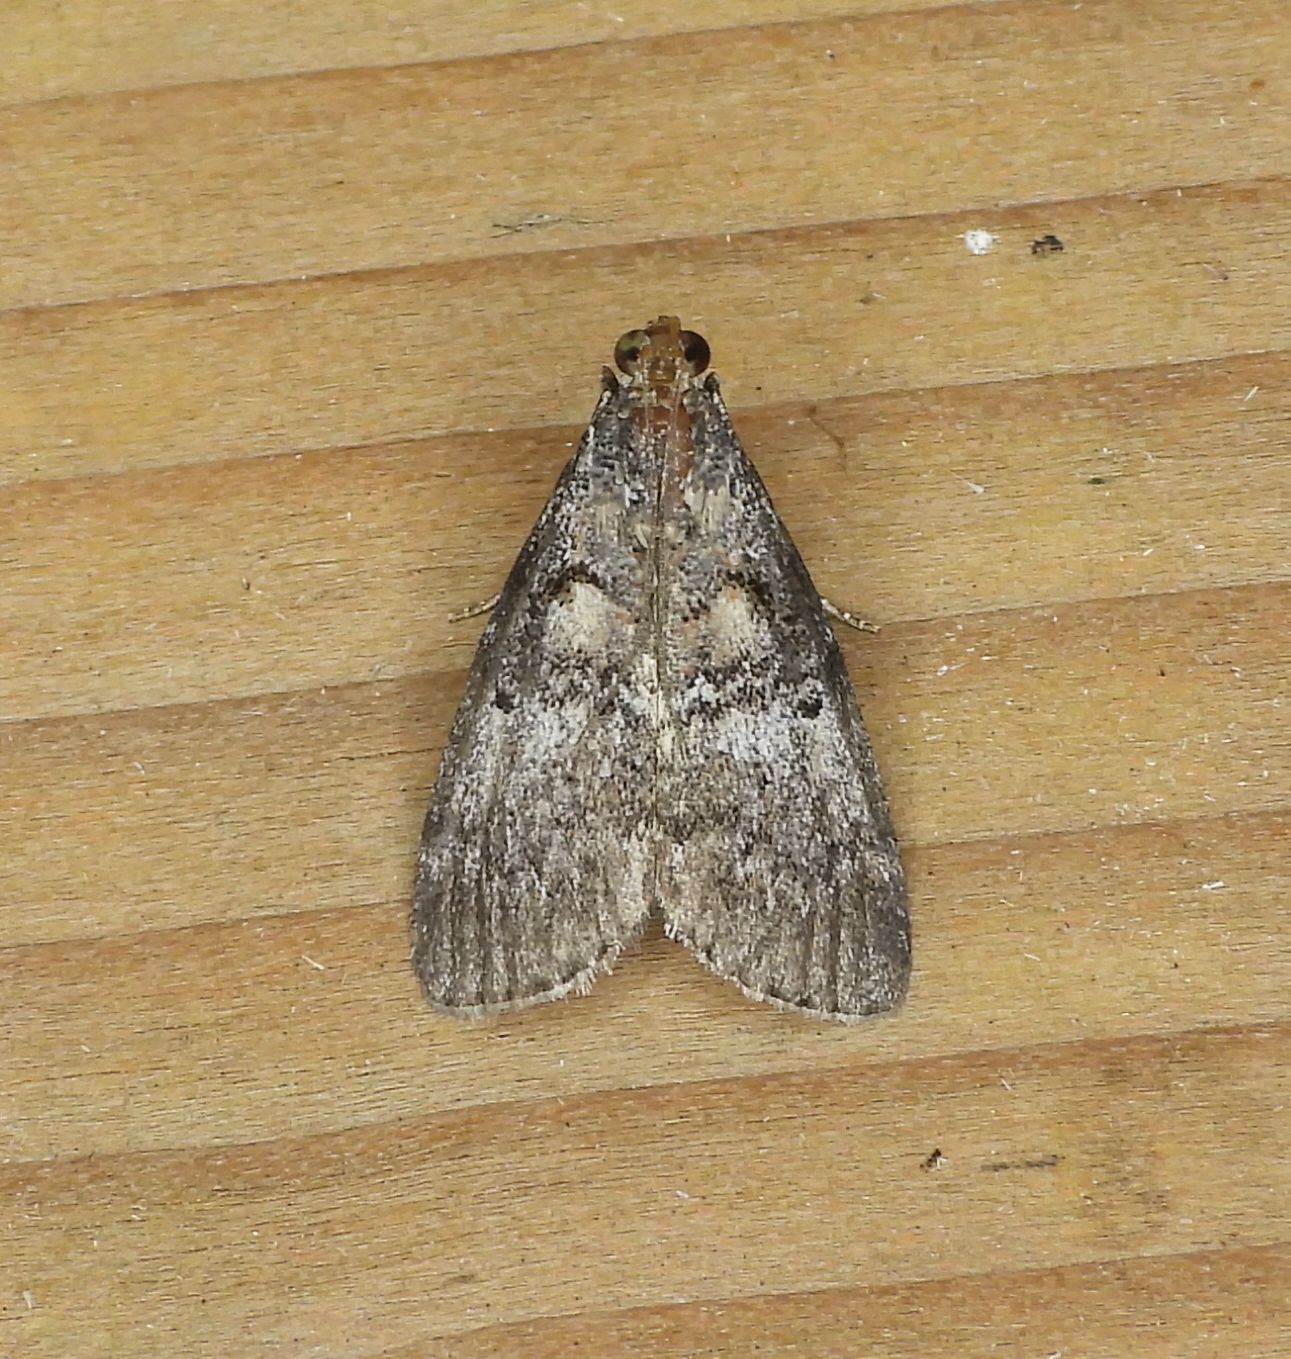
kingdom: Animalia
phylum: Arthropoda
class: Insecta
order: Lepidoptera
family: Pyralidae
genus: Pococera
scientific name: Pococera asperatella
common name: Maple webworm moth
